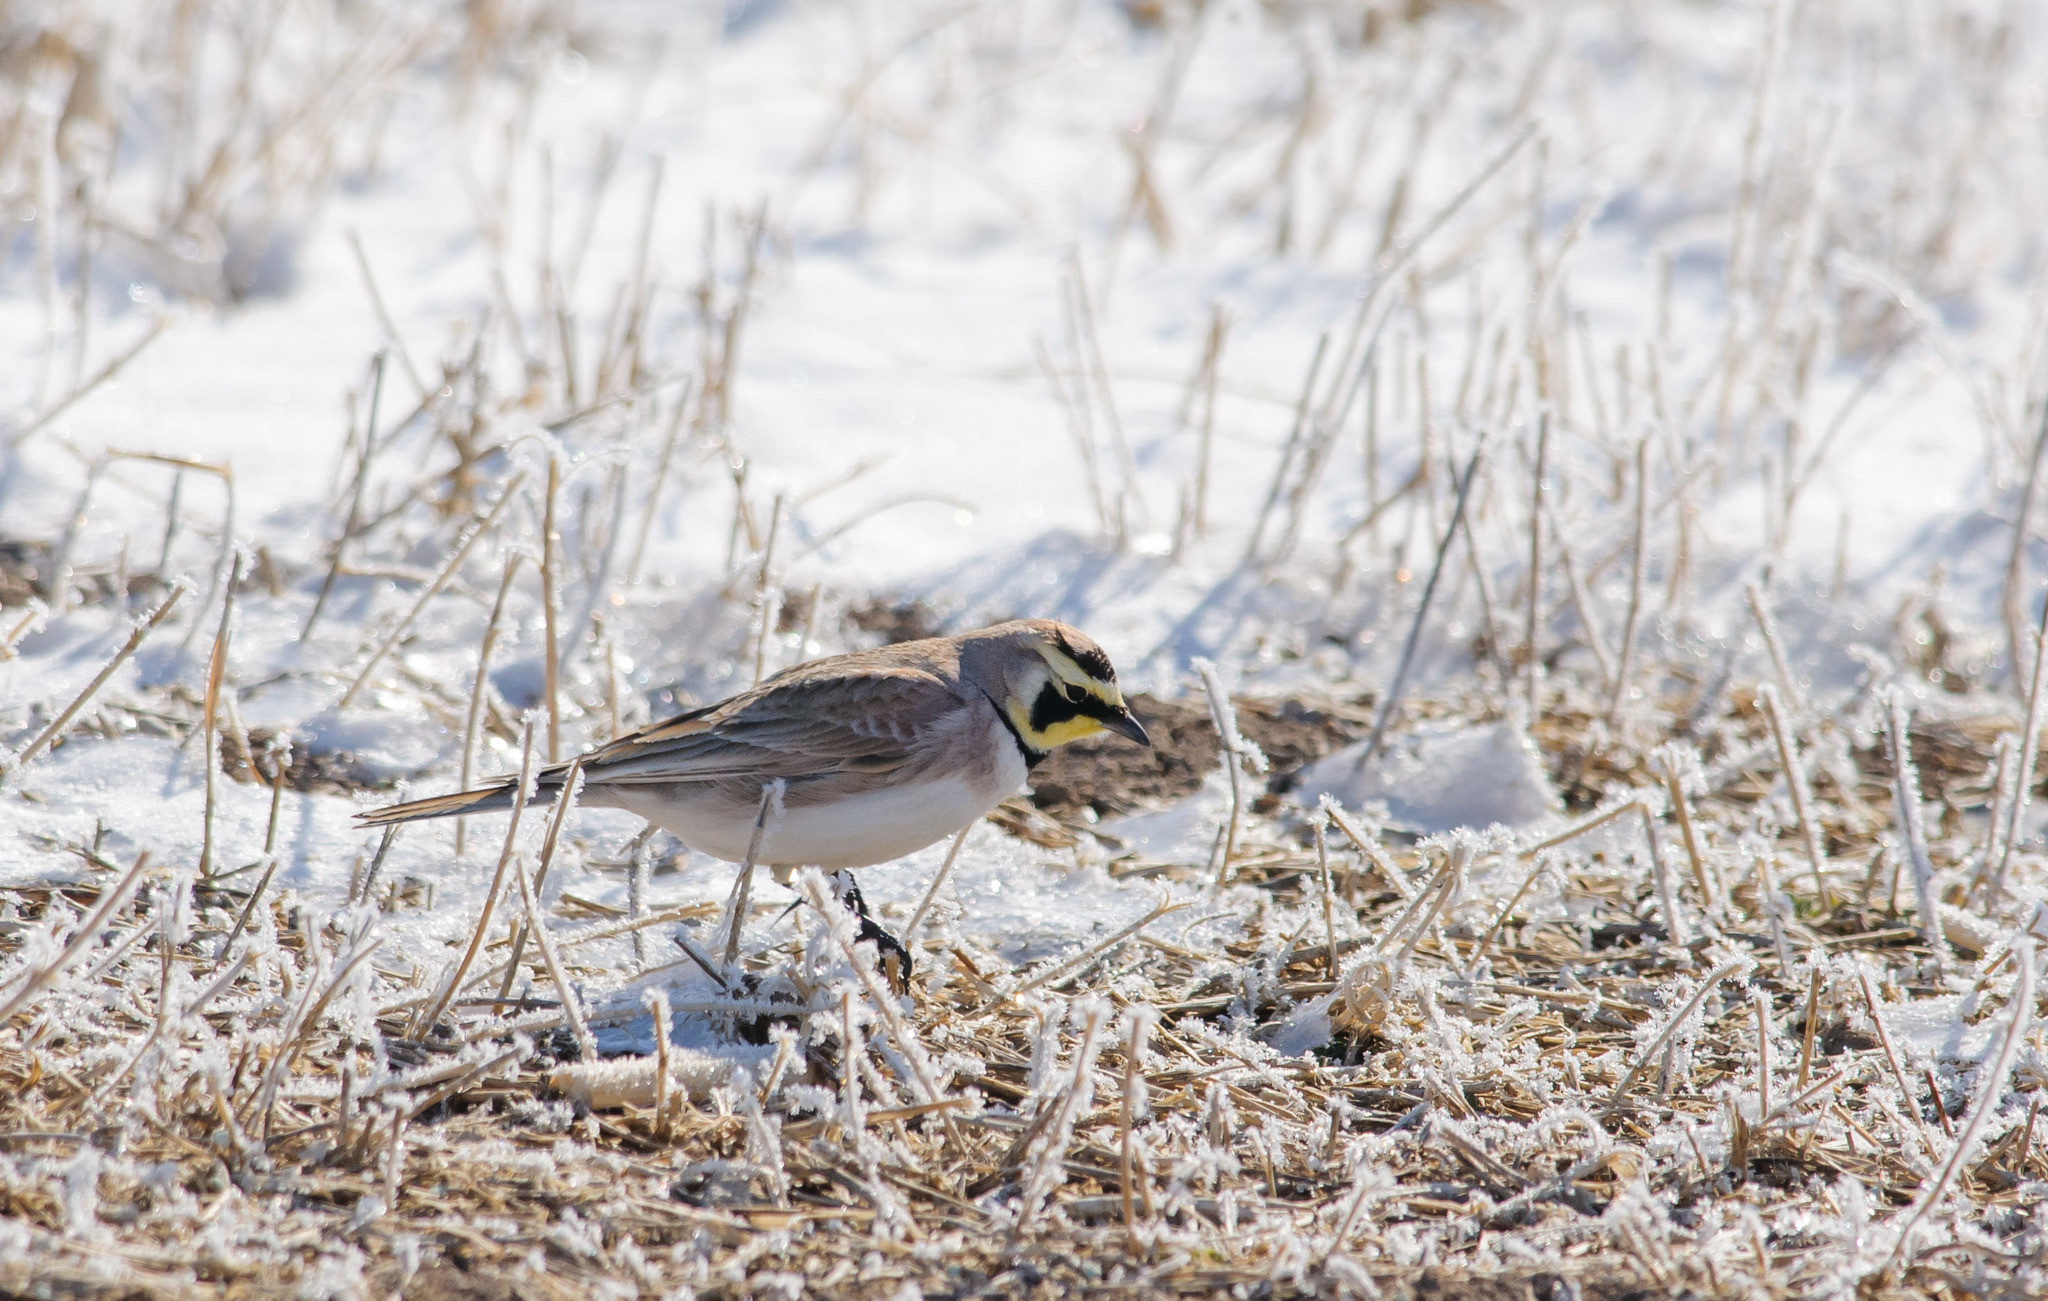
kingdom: Animalia
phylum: Chordata
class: Aves
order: Passeriformes
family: Alaudidae
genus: Eremophila
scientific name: Eremophila alpestris
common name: Horned lark
